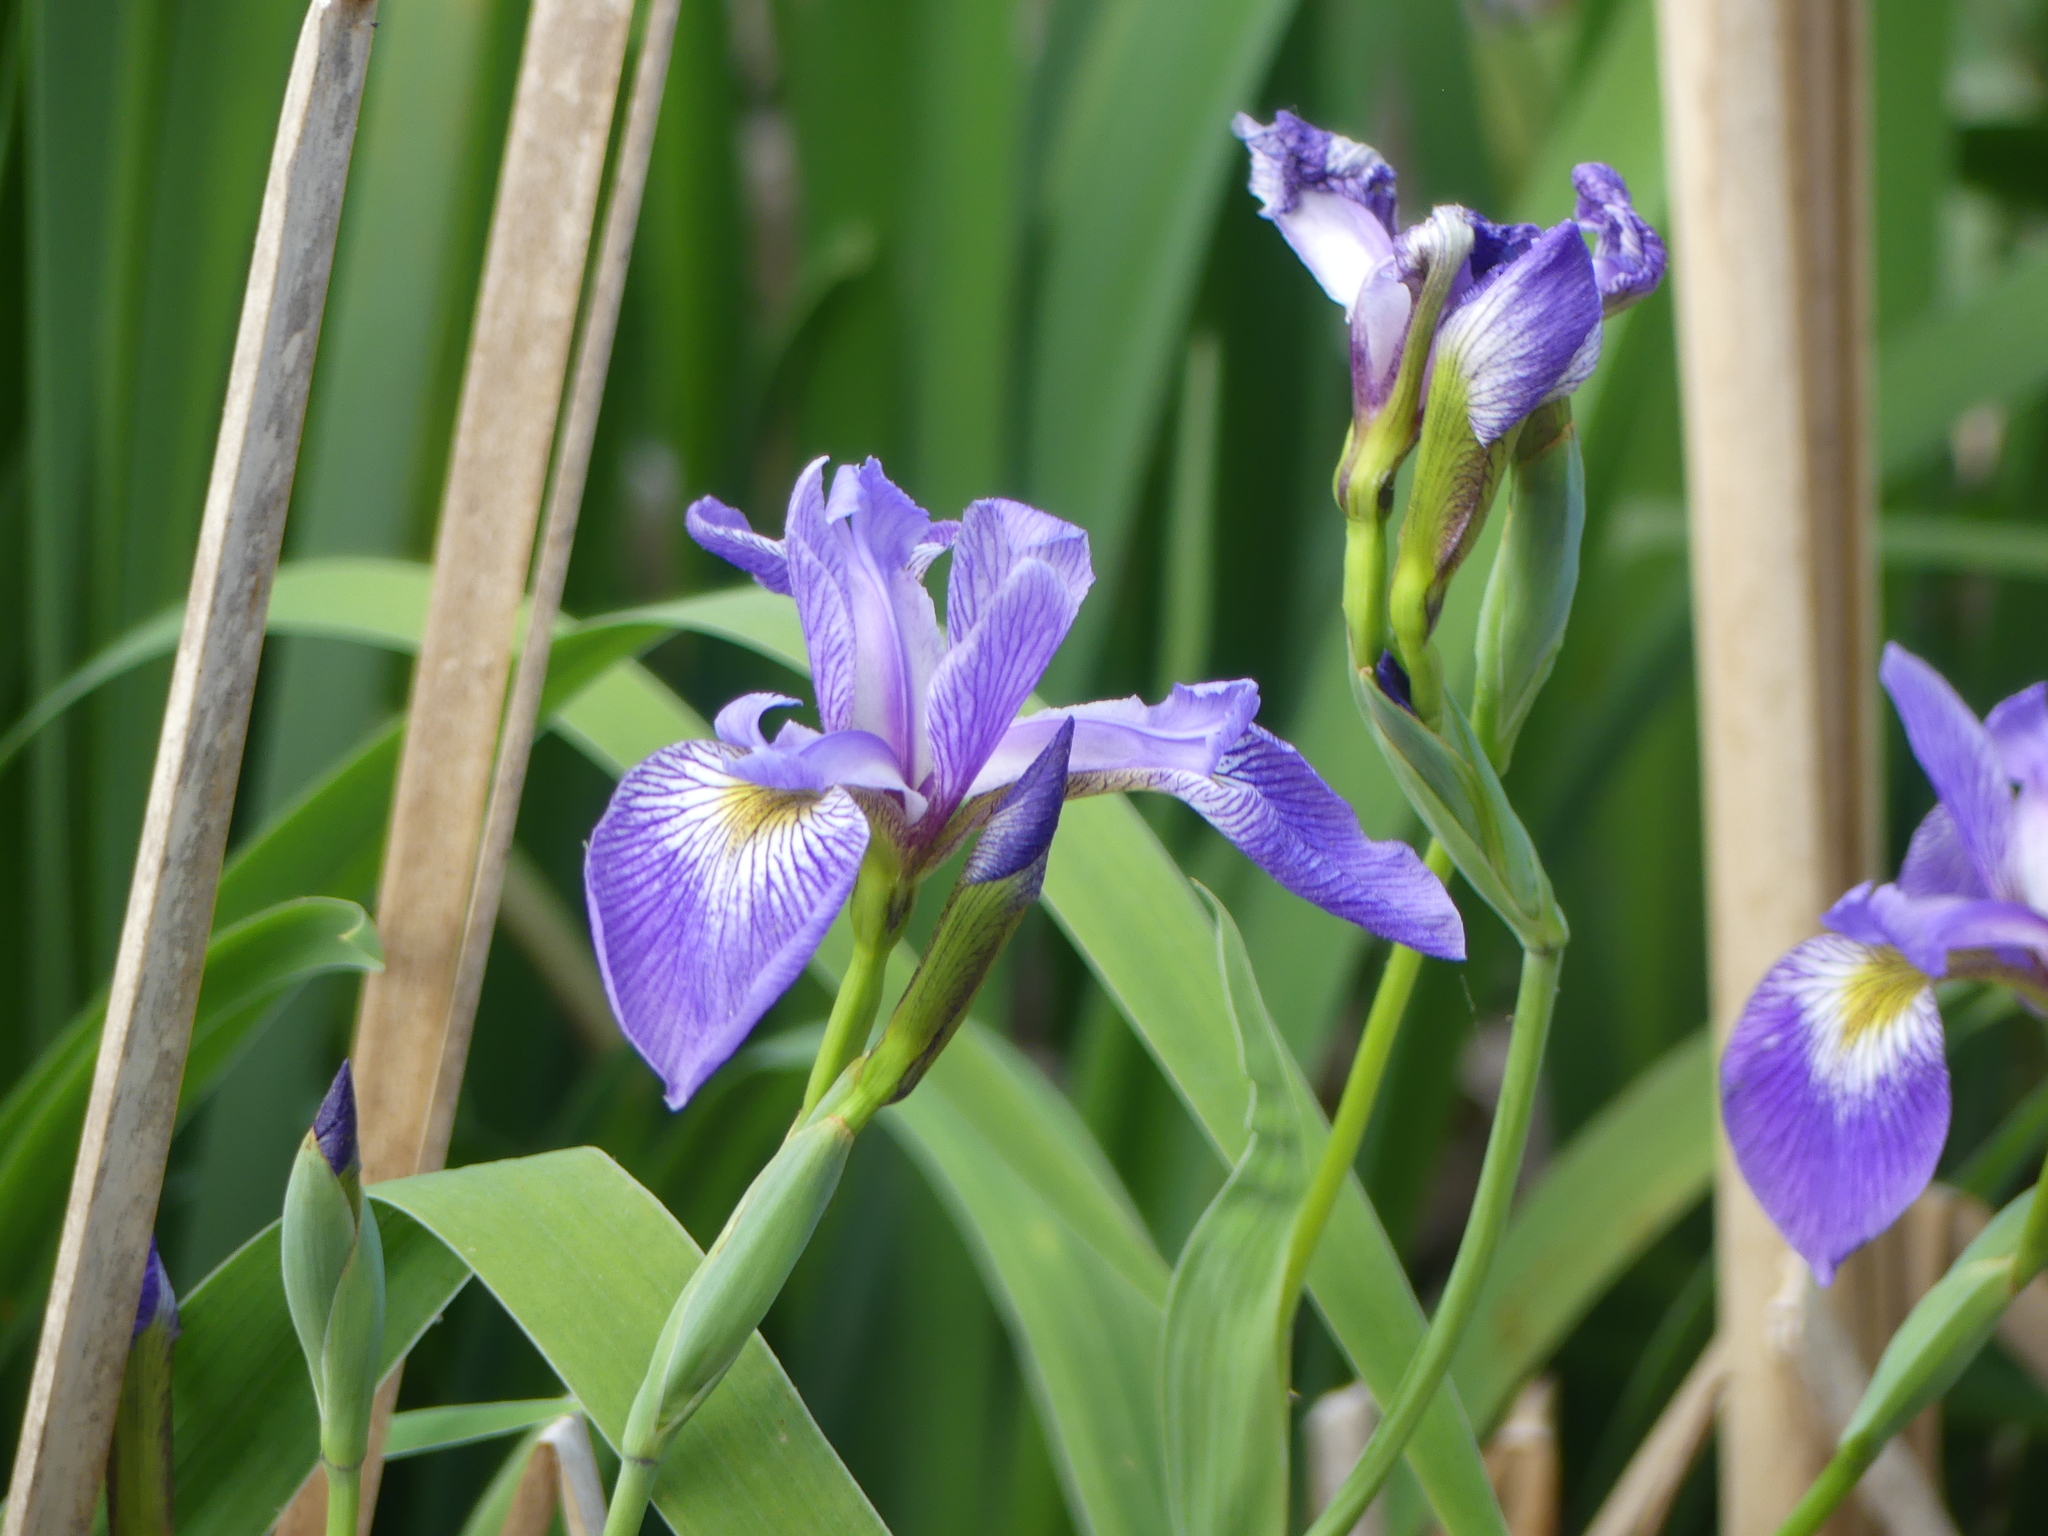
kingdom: Plantae
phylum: Tracheophyta
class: Liliopsida
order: Asparagales
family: Iridaceae
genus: Iris
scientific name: Iris versicolor
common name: Purple iris
